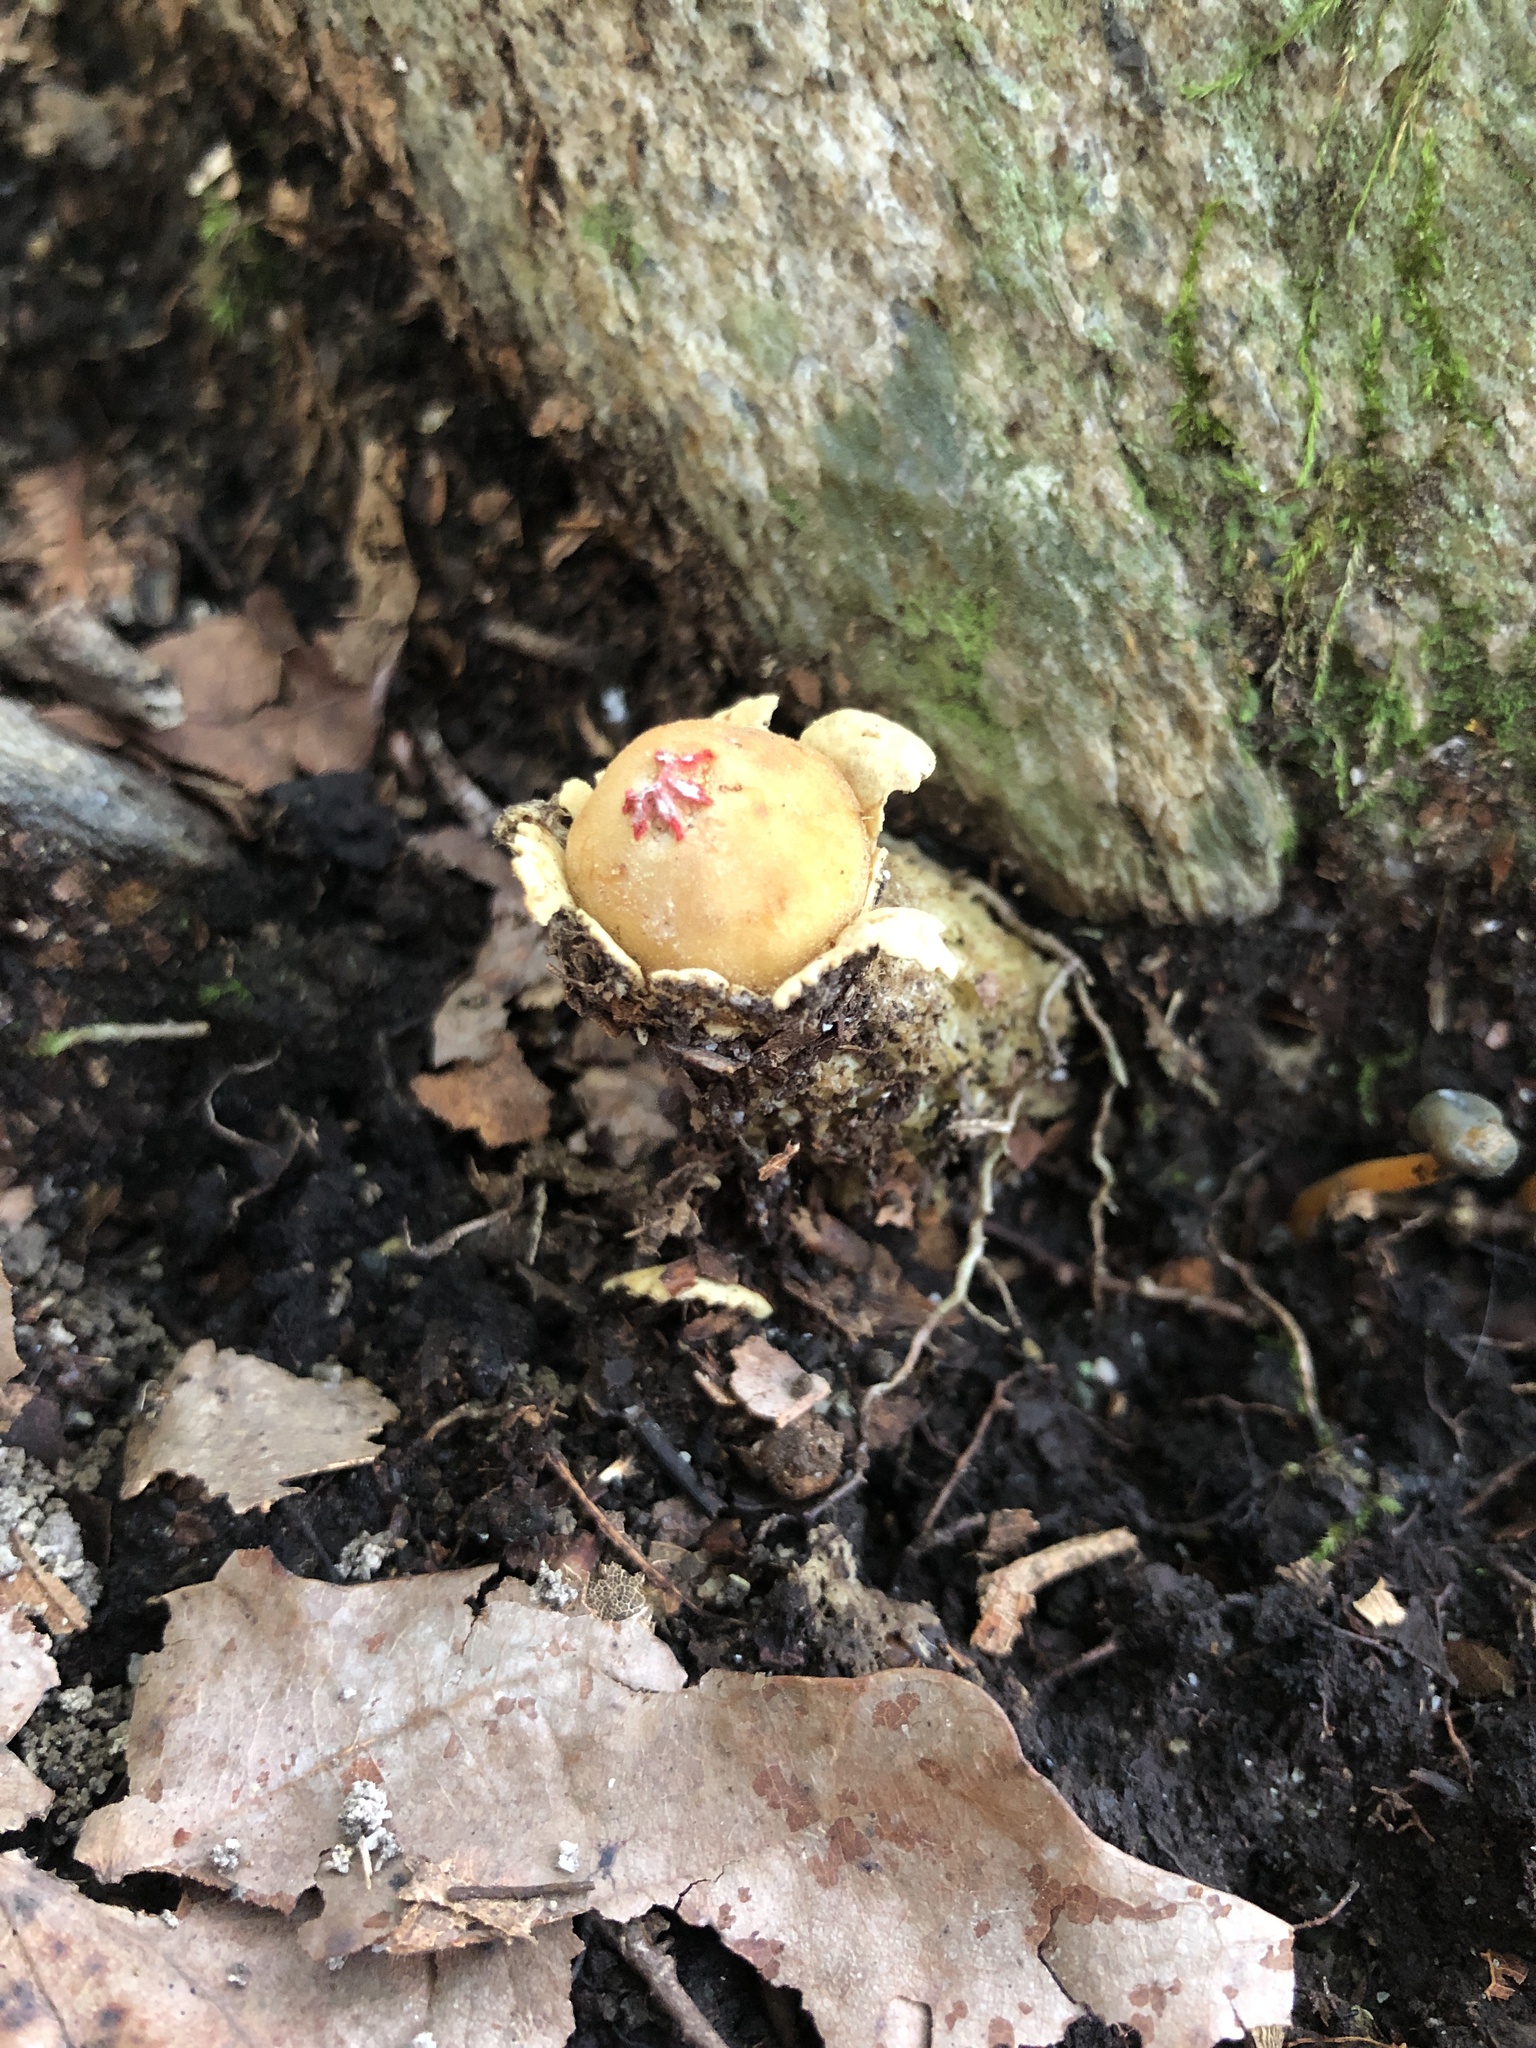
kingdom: Fungi
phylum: Basidiomycota
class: Agaricomycetes
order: Boletales
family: Calostomataceae
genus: Calostoma
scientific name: Calostoma lutescens
